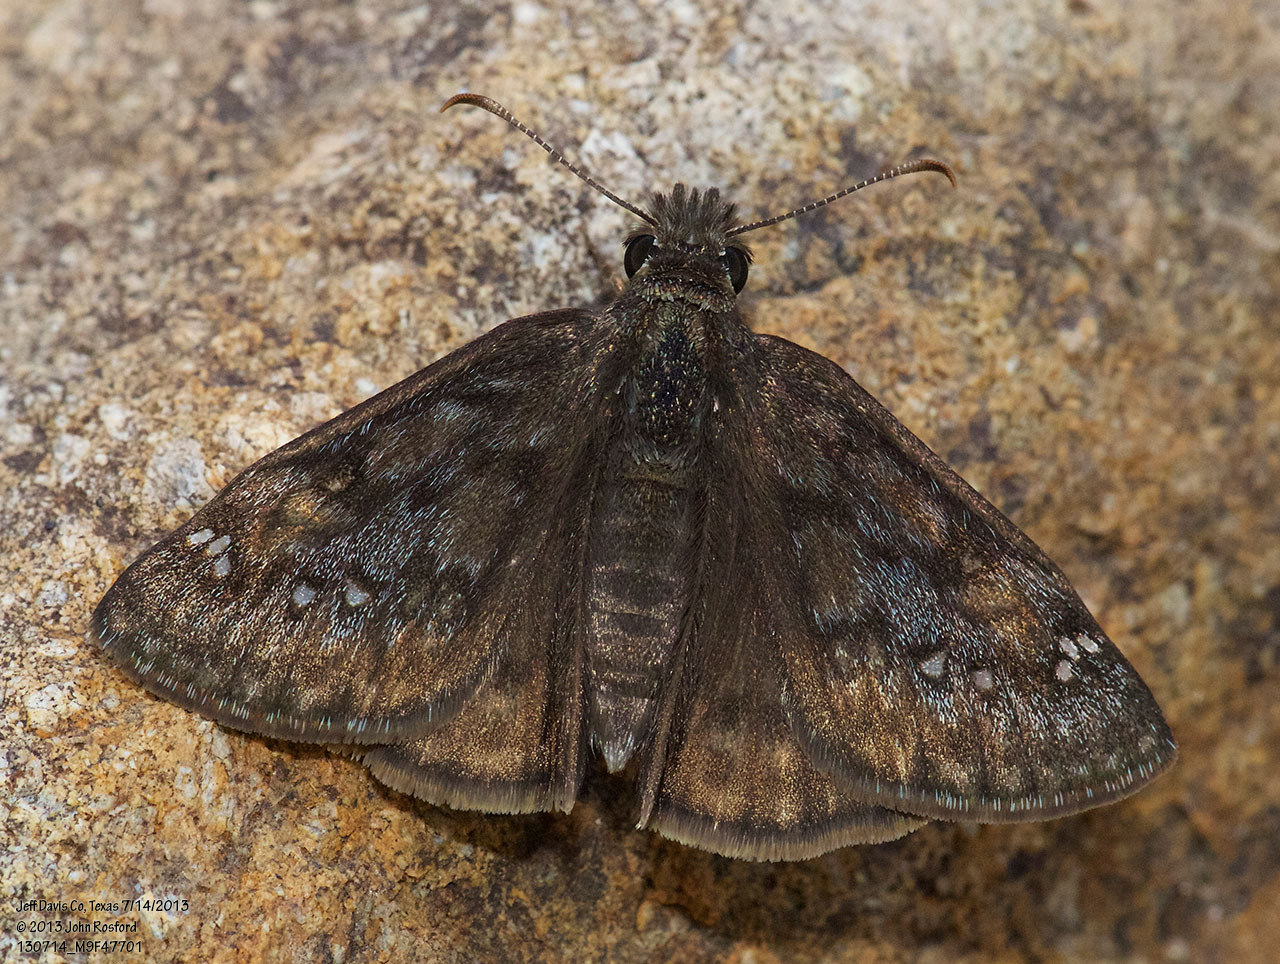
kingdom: Animalia
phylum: Arthropoda
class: Insecta
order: Lepidoptera
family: Hesperiidae
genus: Erynnis
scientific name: Erynnis meridianus
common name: Meridian duskywing
